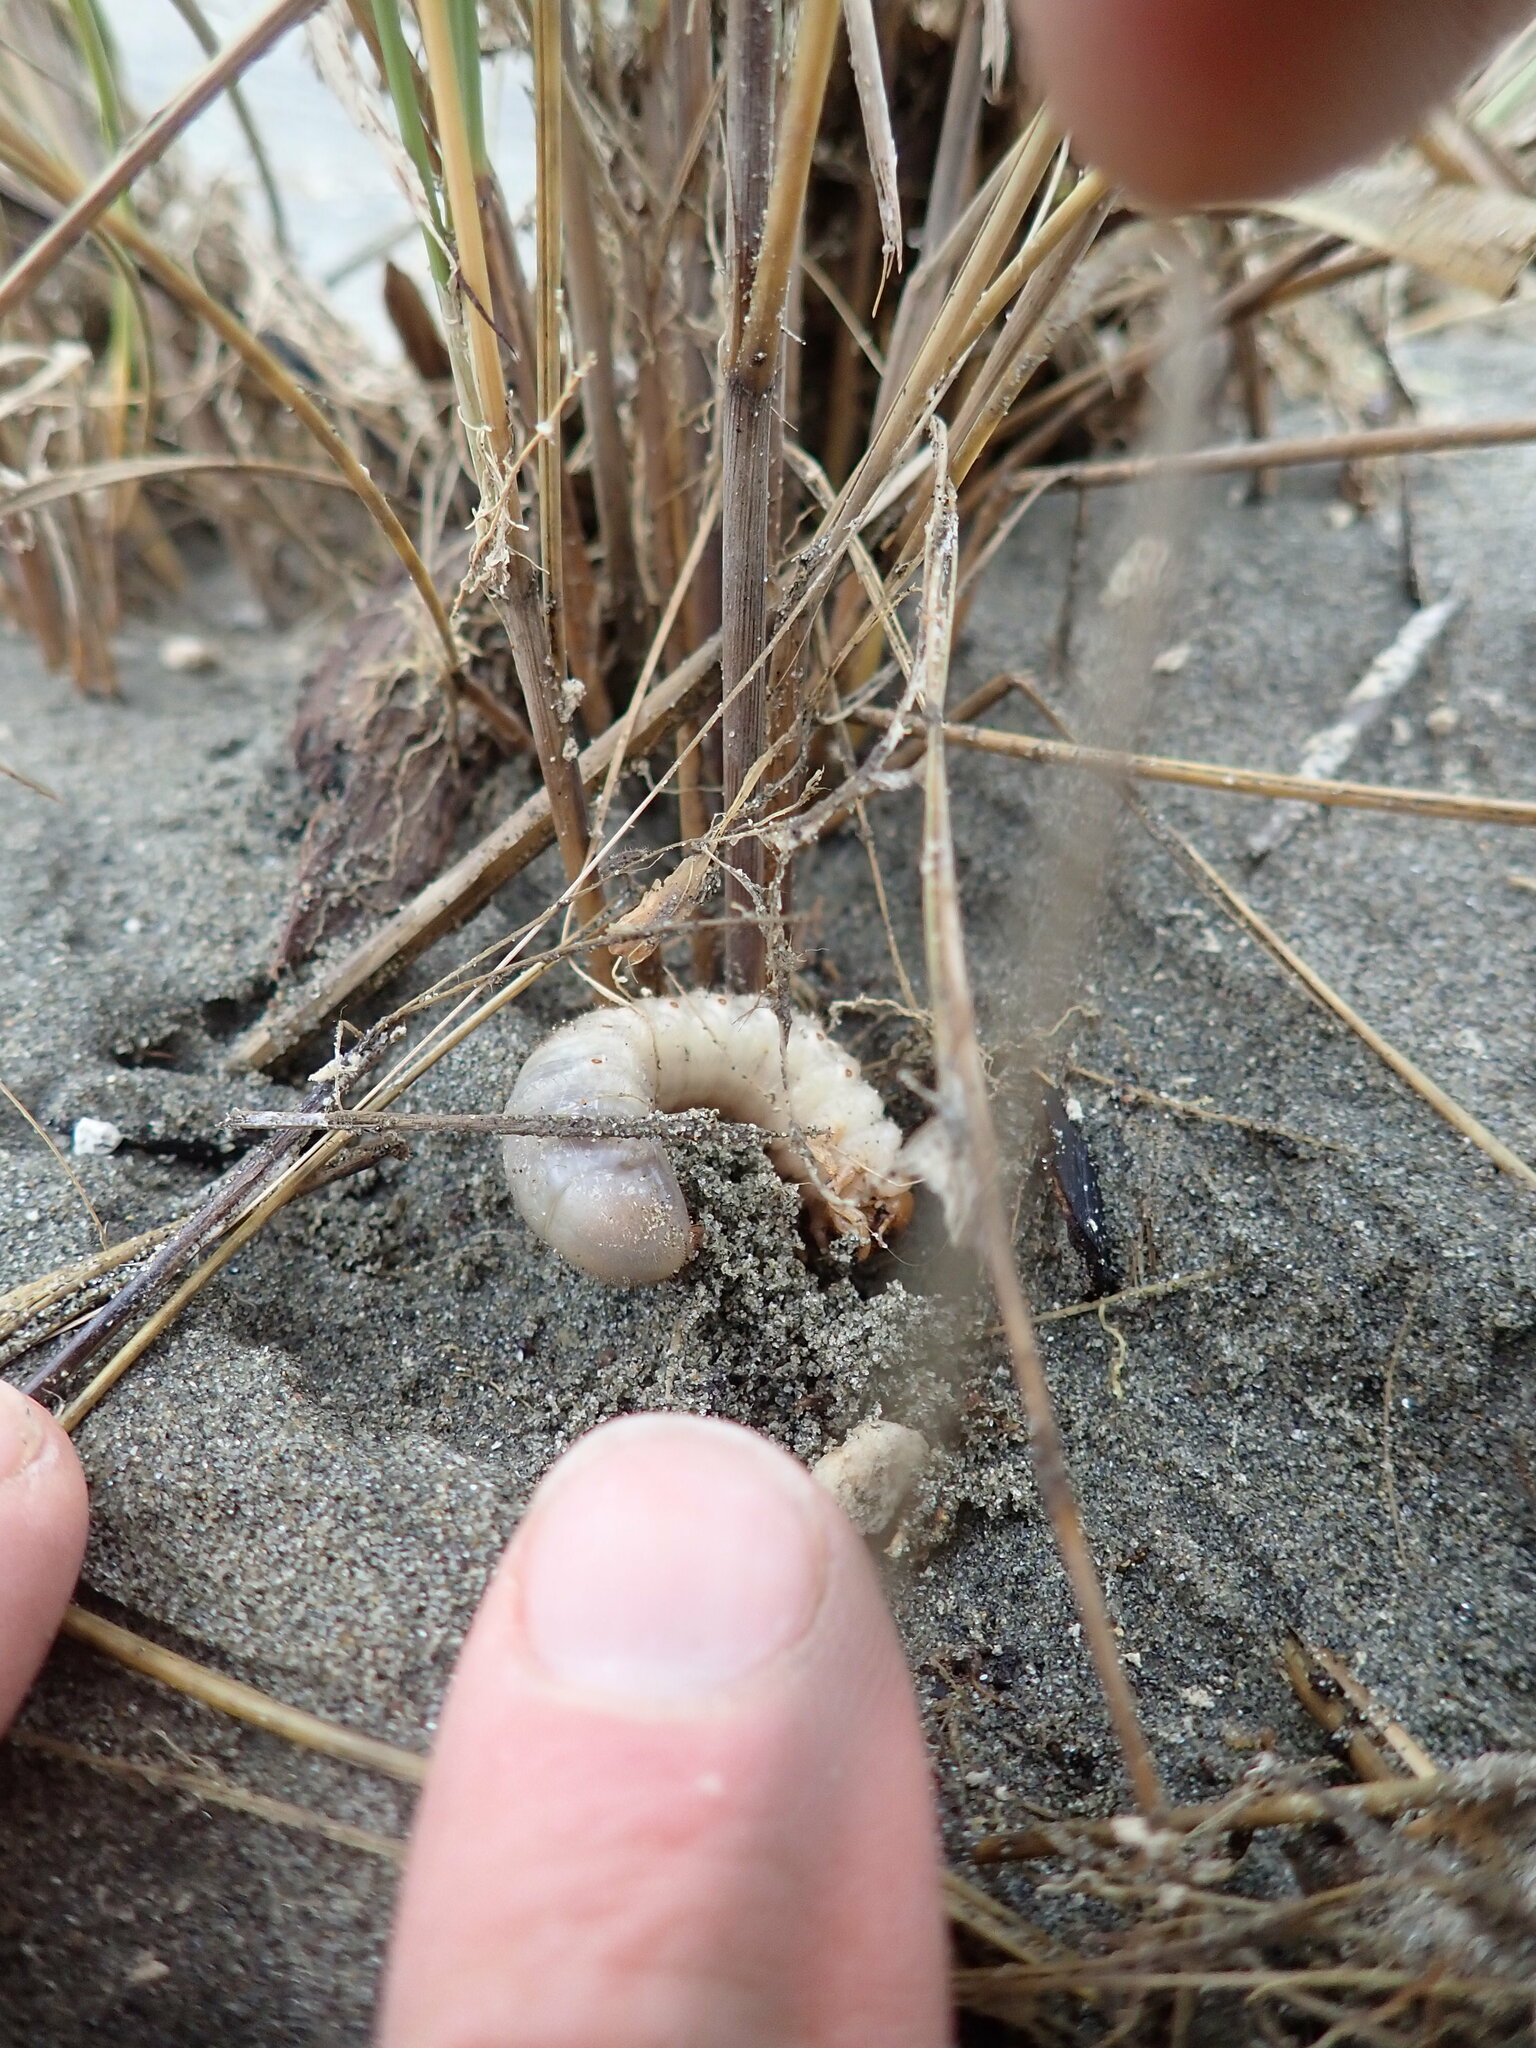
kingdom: Animalia
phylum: Arthropoda
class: Insecta
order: Coleoptera
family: Scarabaeidae
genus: Pericoptus
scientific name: Pericoptus truncatus
